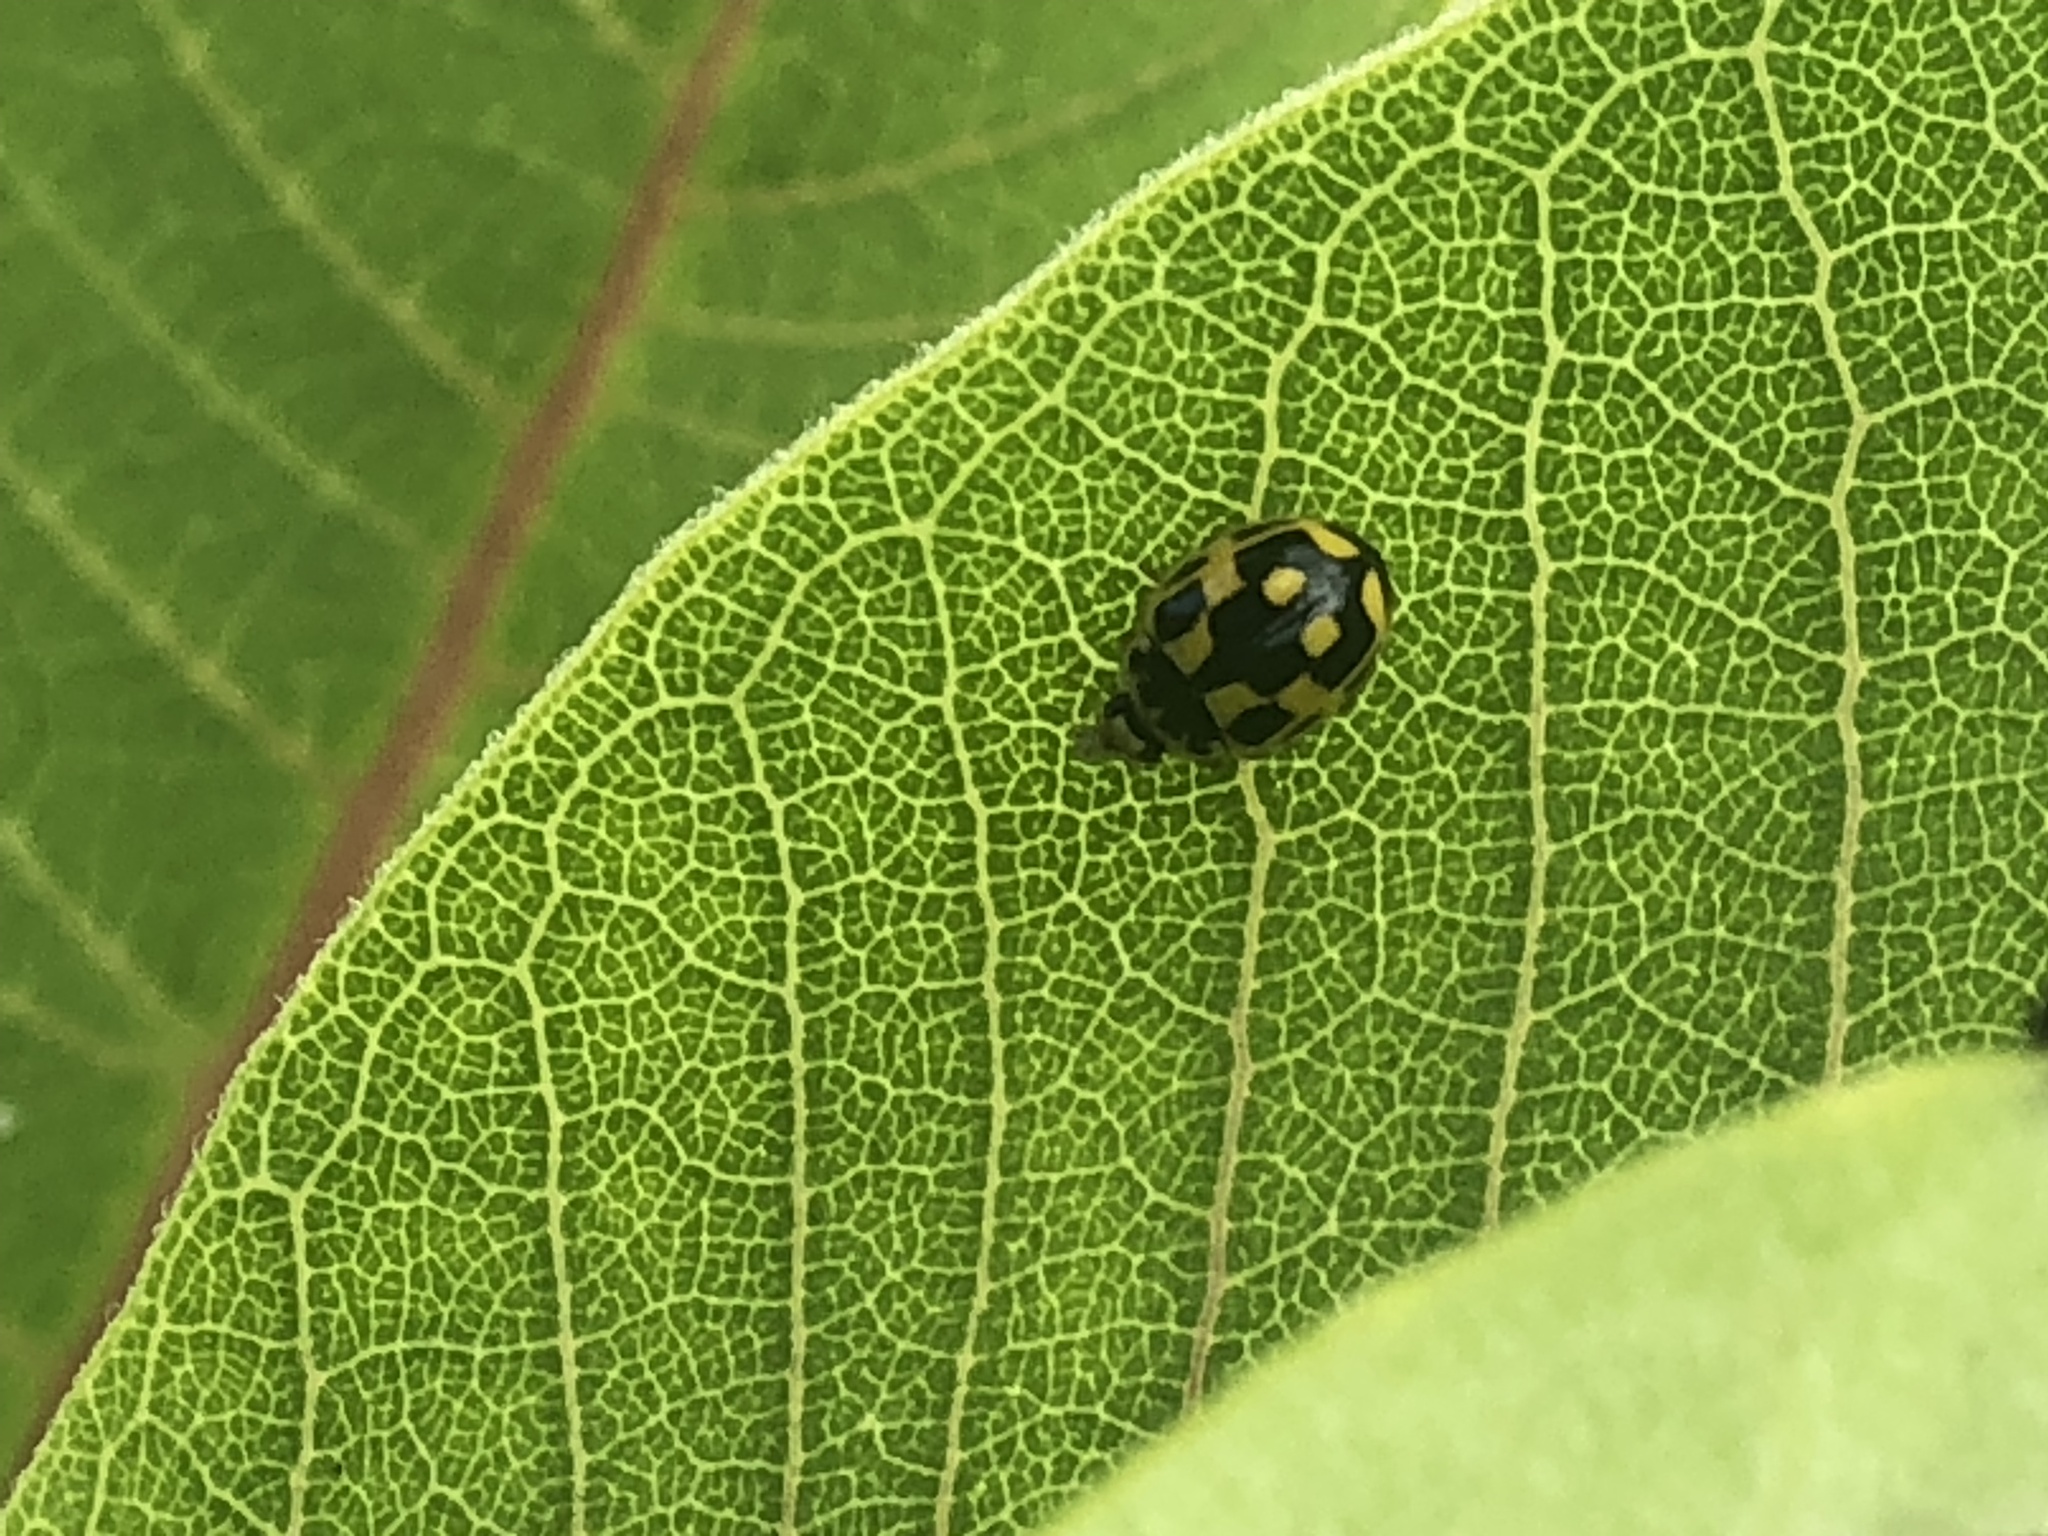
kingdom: Animalia
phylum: Arthropoda
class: Insecta
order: Coleoptera
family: Coccinellidae
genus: Propylaea
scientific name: Propylaea quatuordecimpunctata
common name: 14-spotted ladybird beetle
